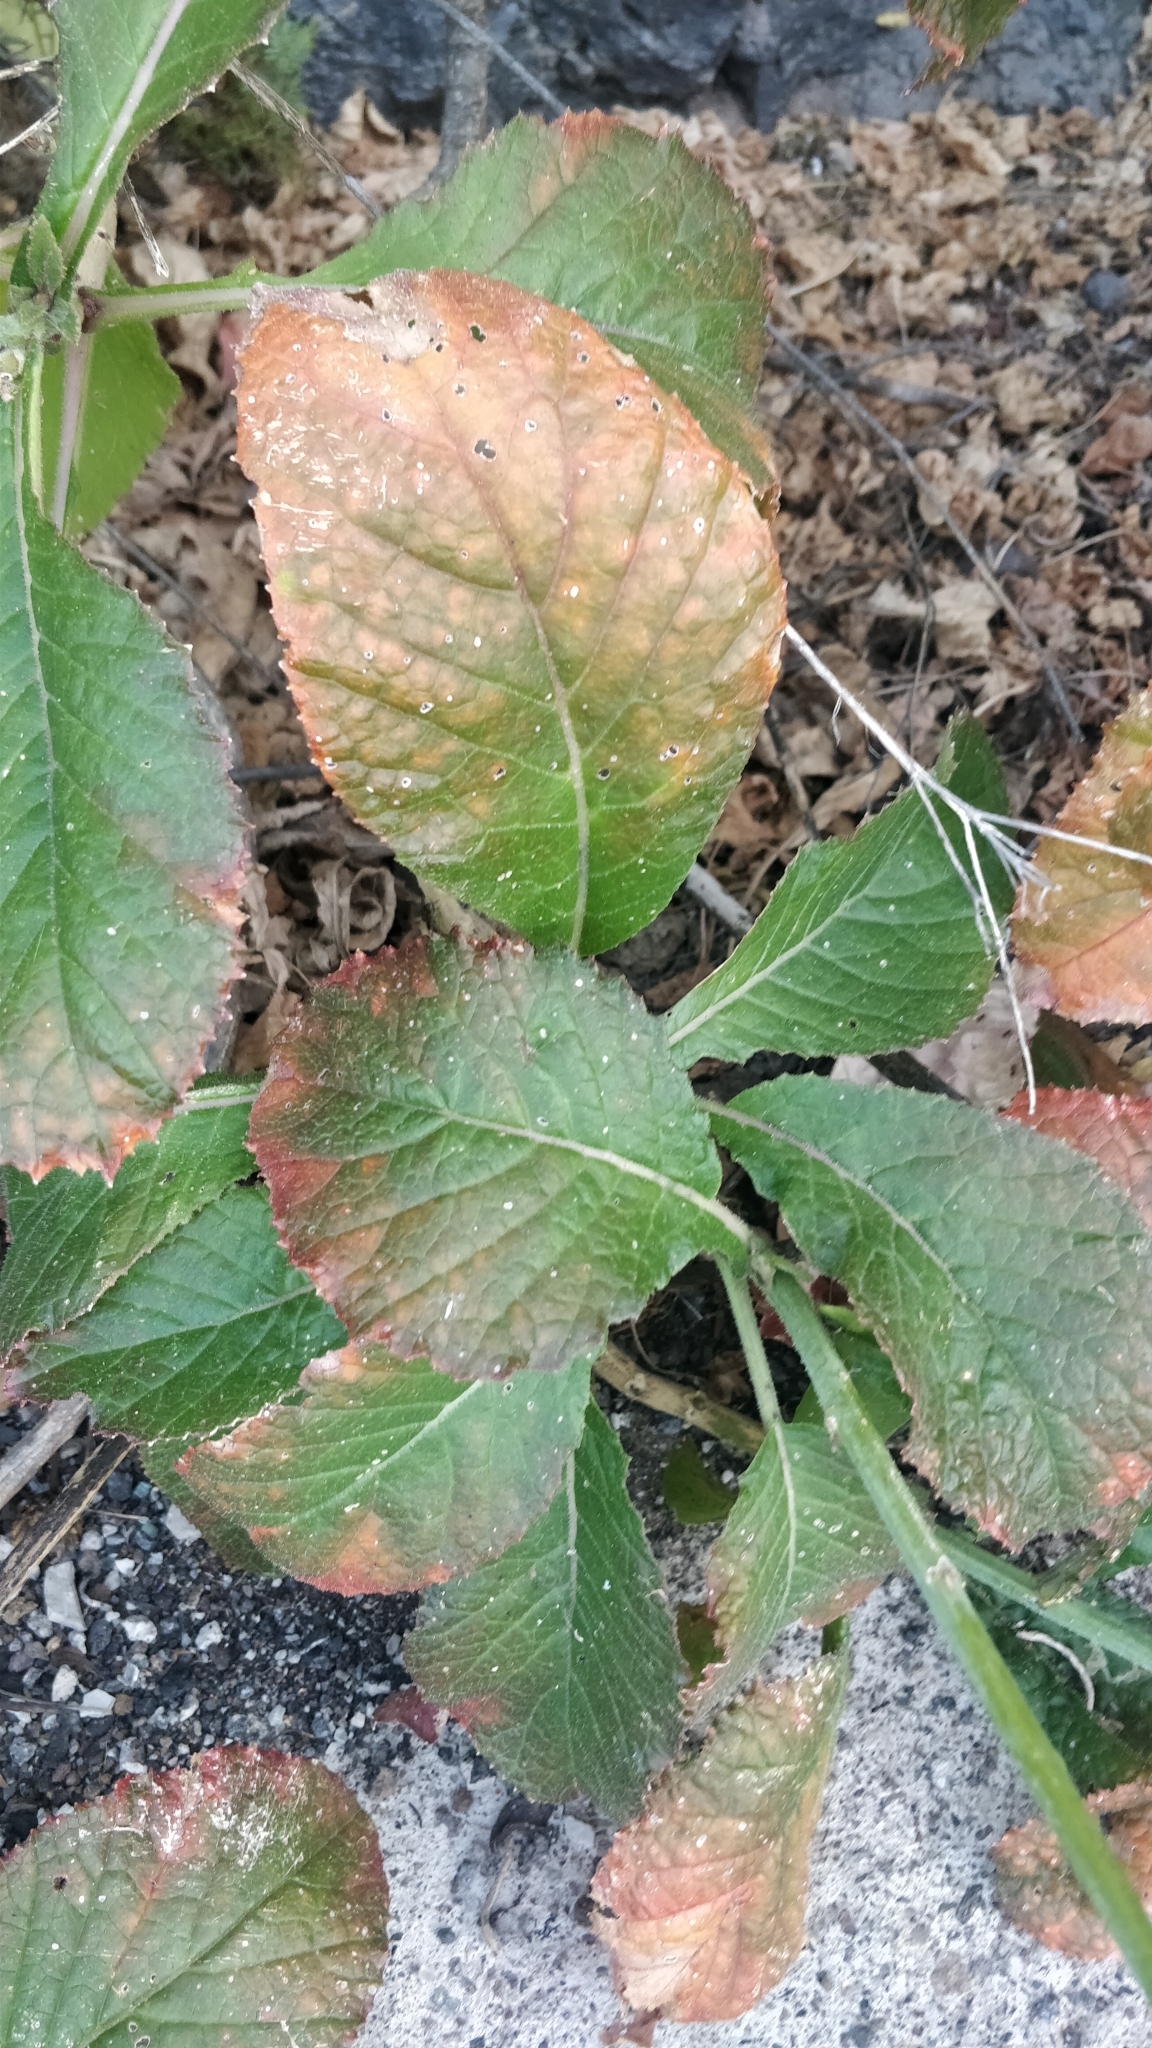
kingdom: Plantae
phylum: Tracheophyta
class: Magnoliopsida
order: Brassicales
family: Brassicaceae
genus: Crambe
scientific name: Crambe scaberrima
